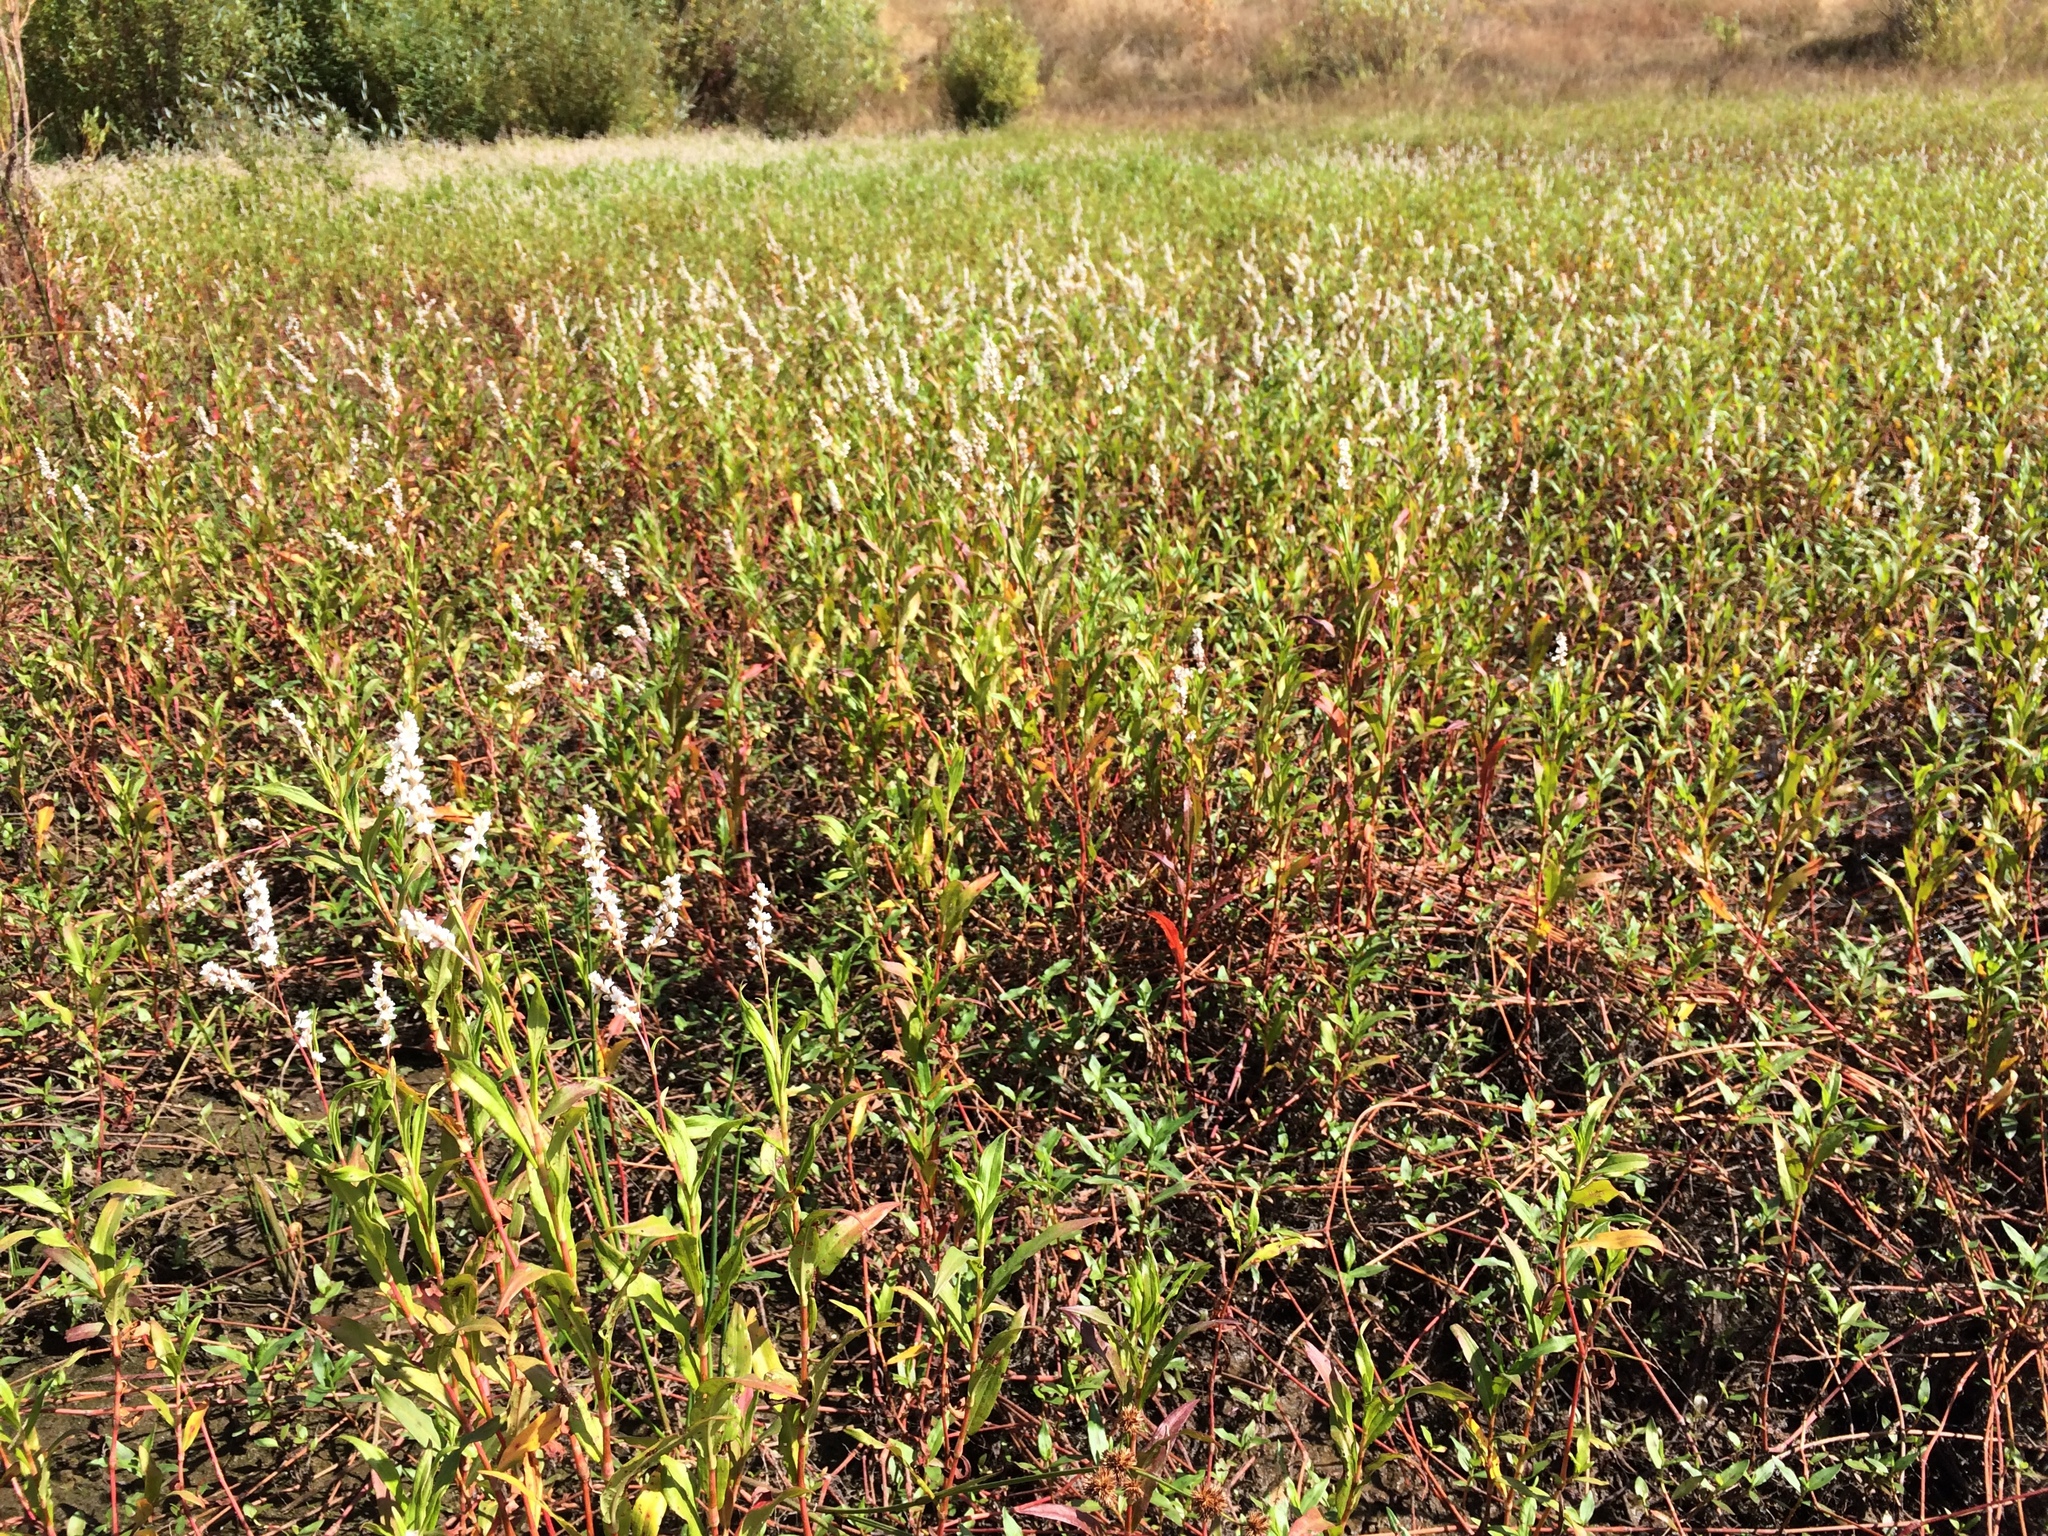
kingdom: Plantae
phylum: Tracheophyta
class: Magnoliopsida
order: Caryophyllales
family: Polygonaceae
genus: Persicaria
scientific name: Persicaria hydropiperoides
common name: Swamp smartweed
